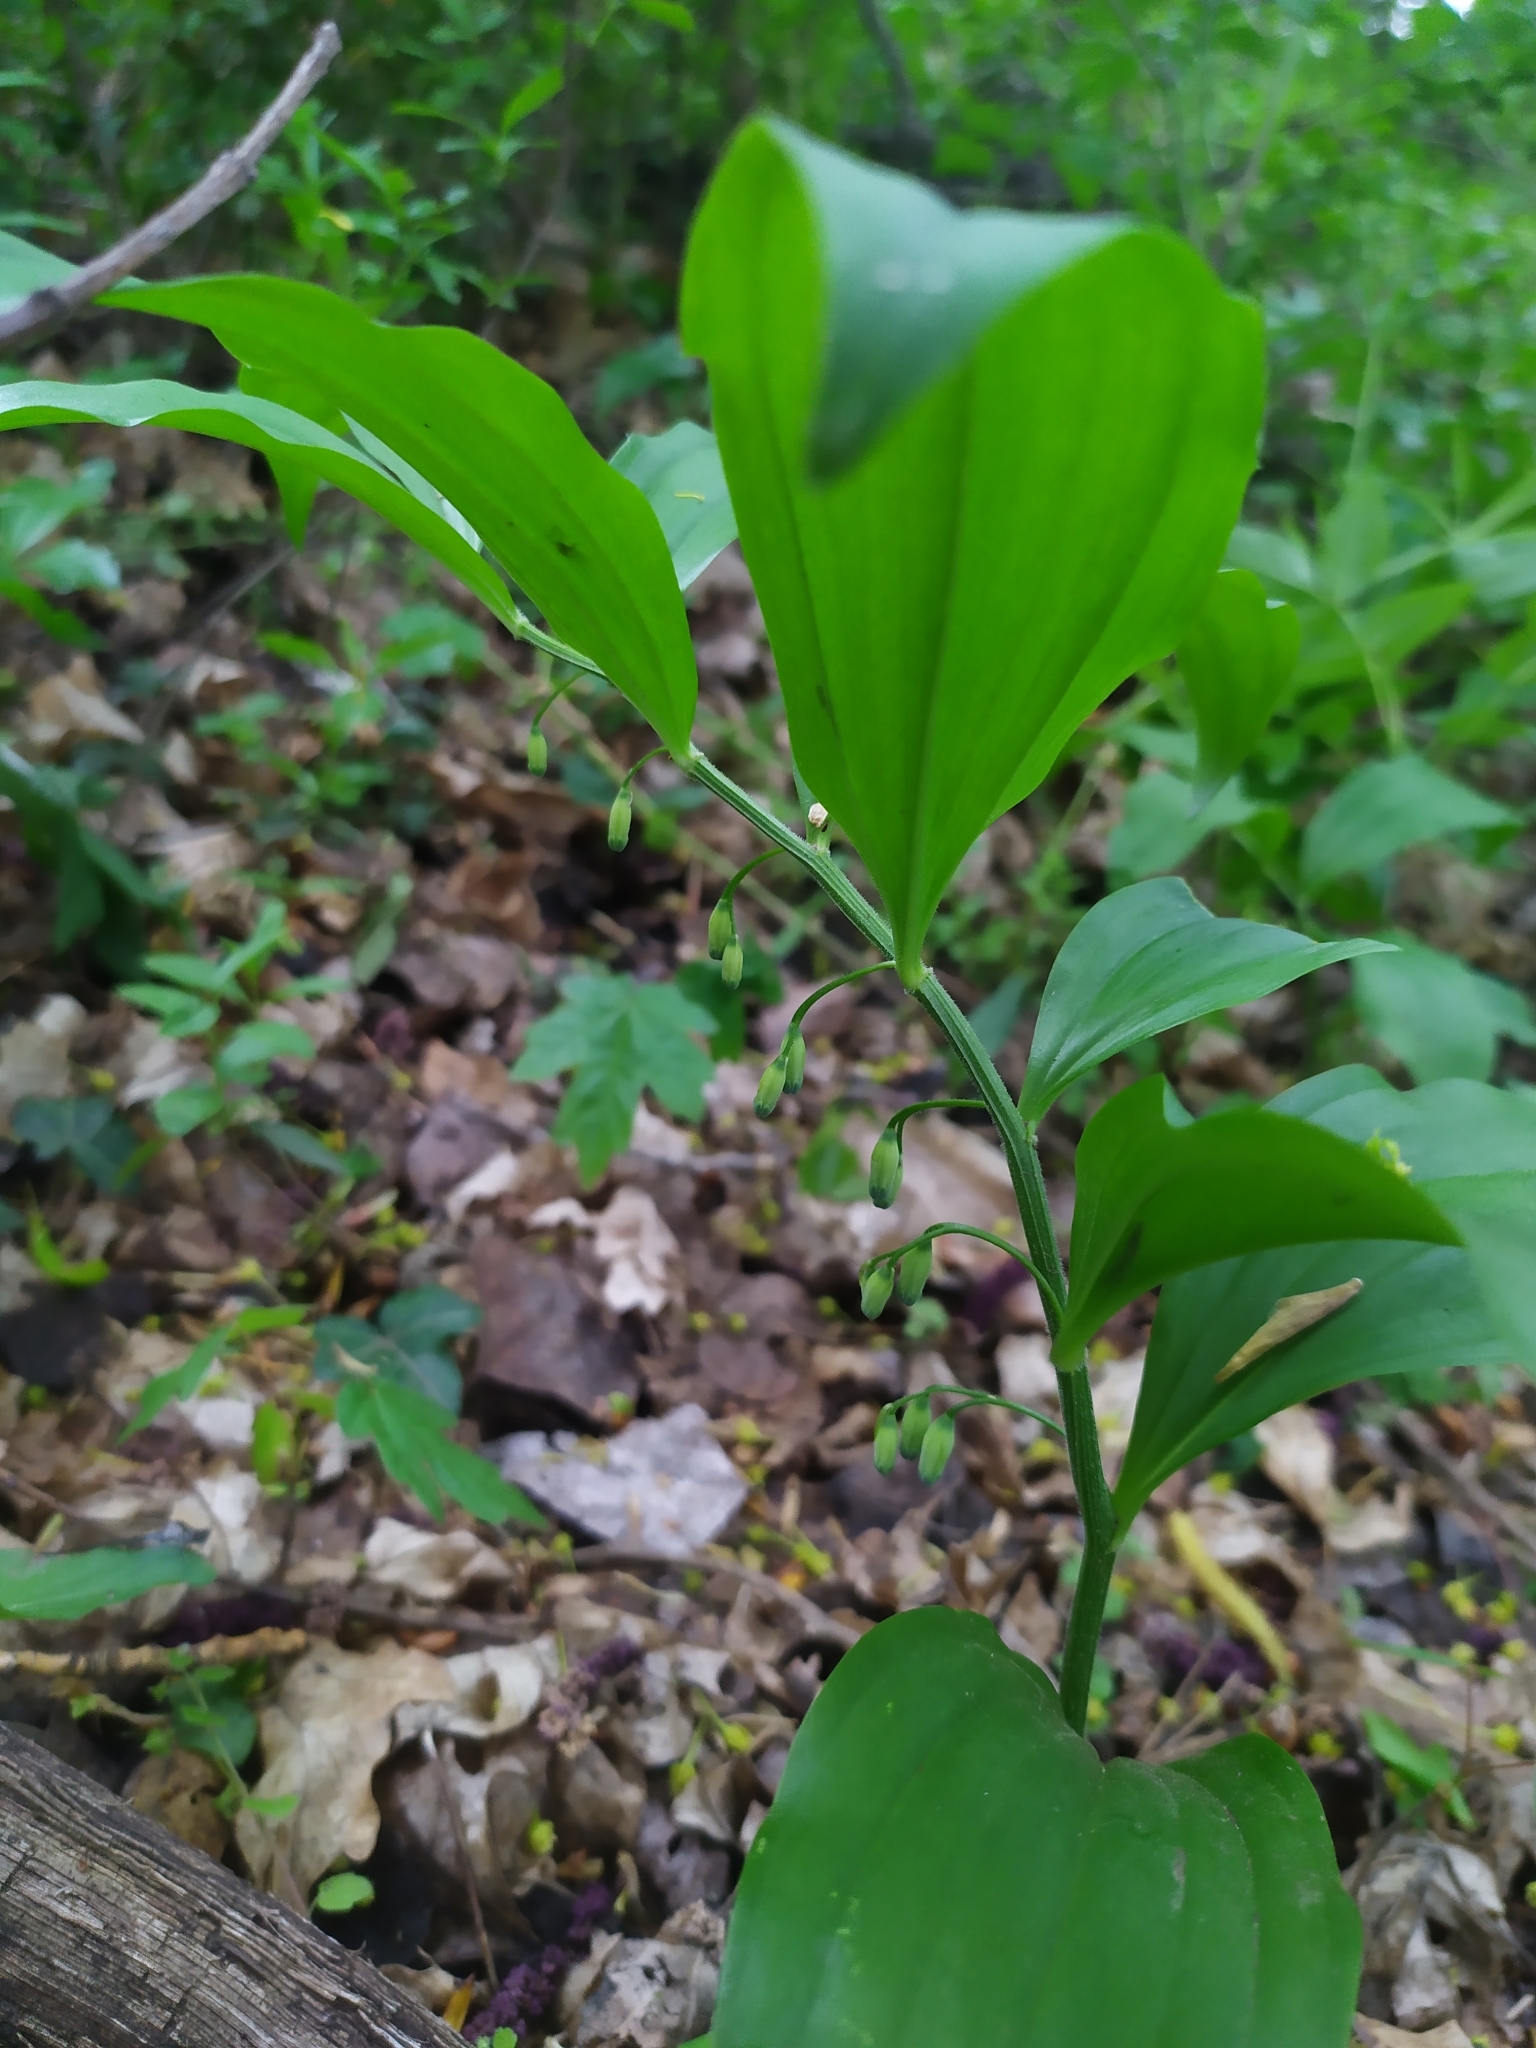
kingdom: Plantae
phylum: Tracheophyta
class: Liliopsida
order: Asparagales
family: Asparagaceae
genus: Polygonatum
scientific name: Polygonatum latifolium
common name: Broadleaf solomon's seal
